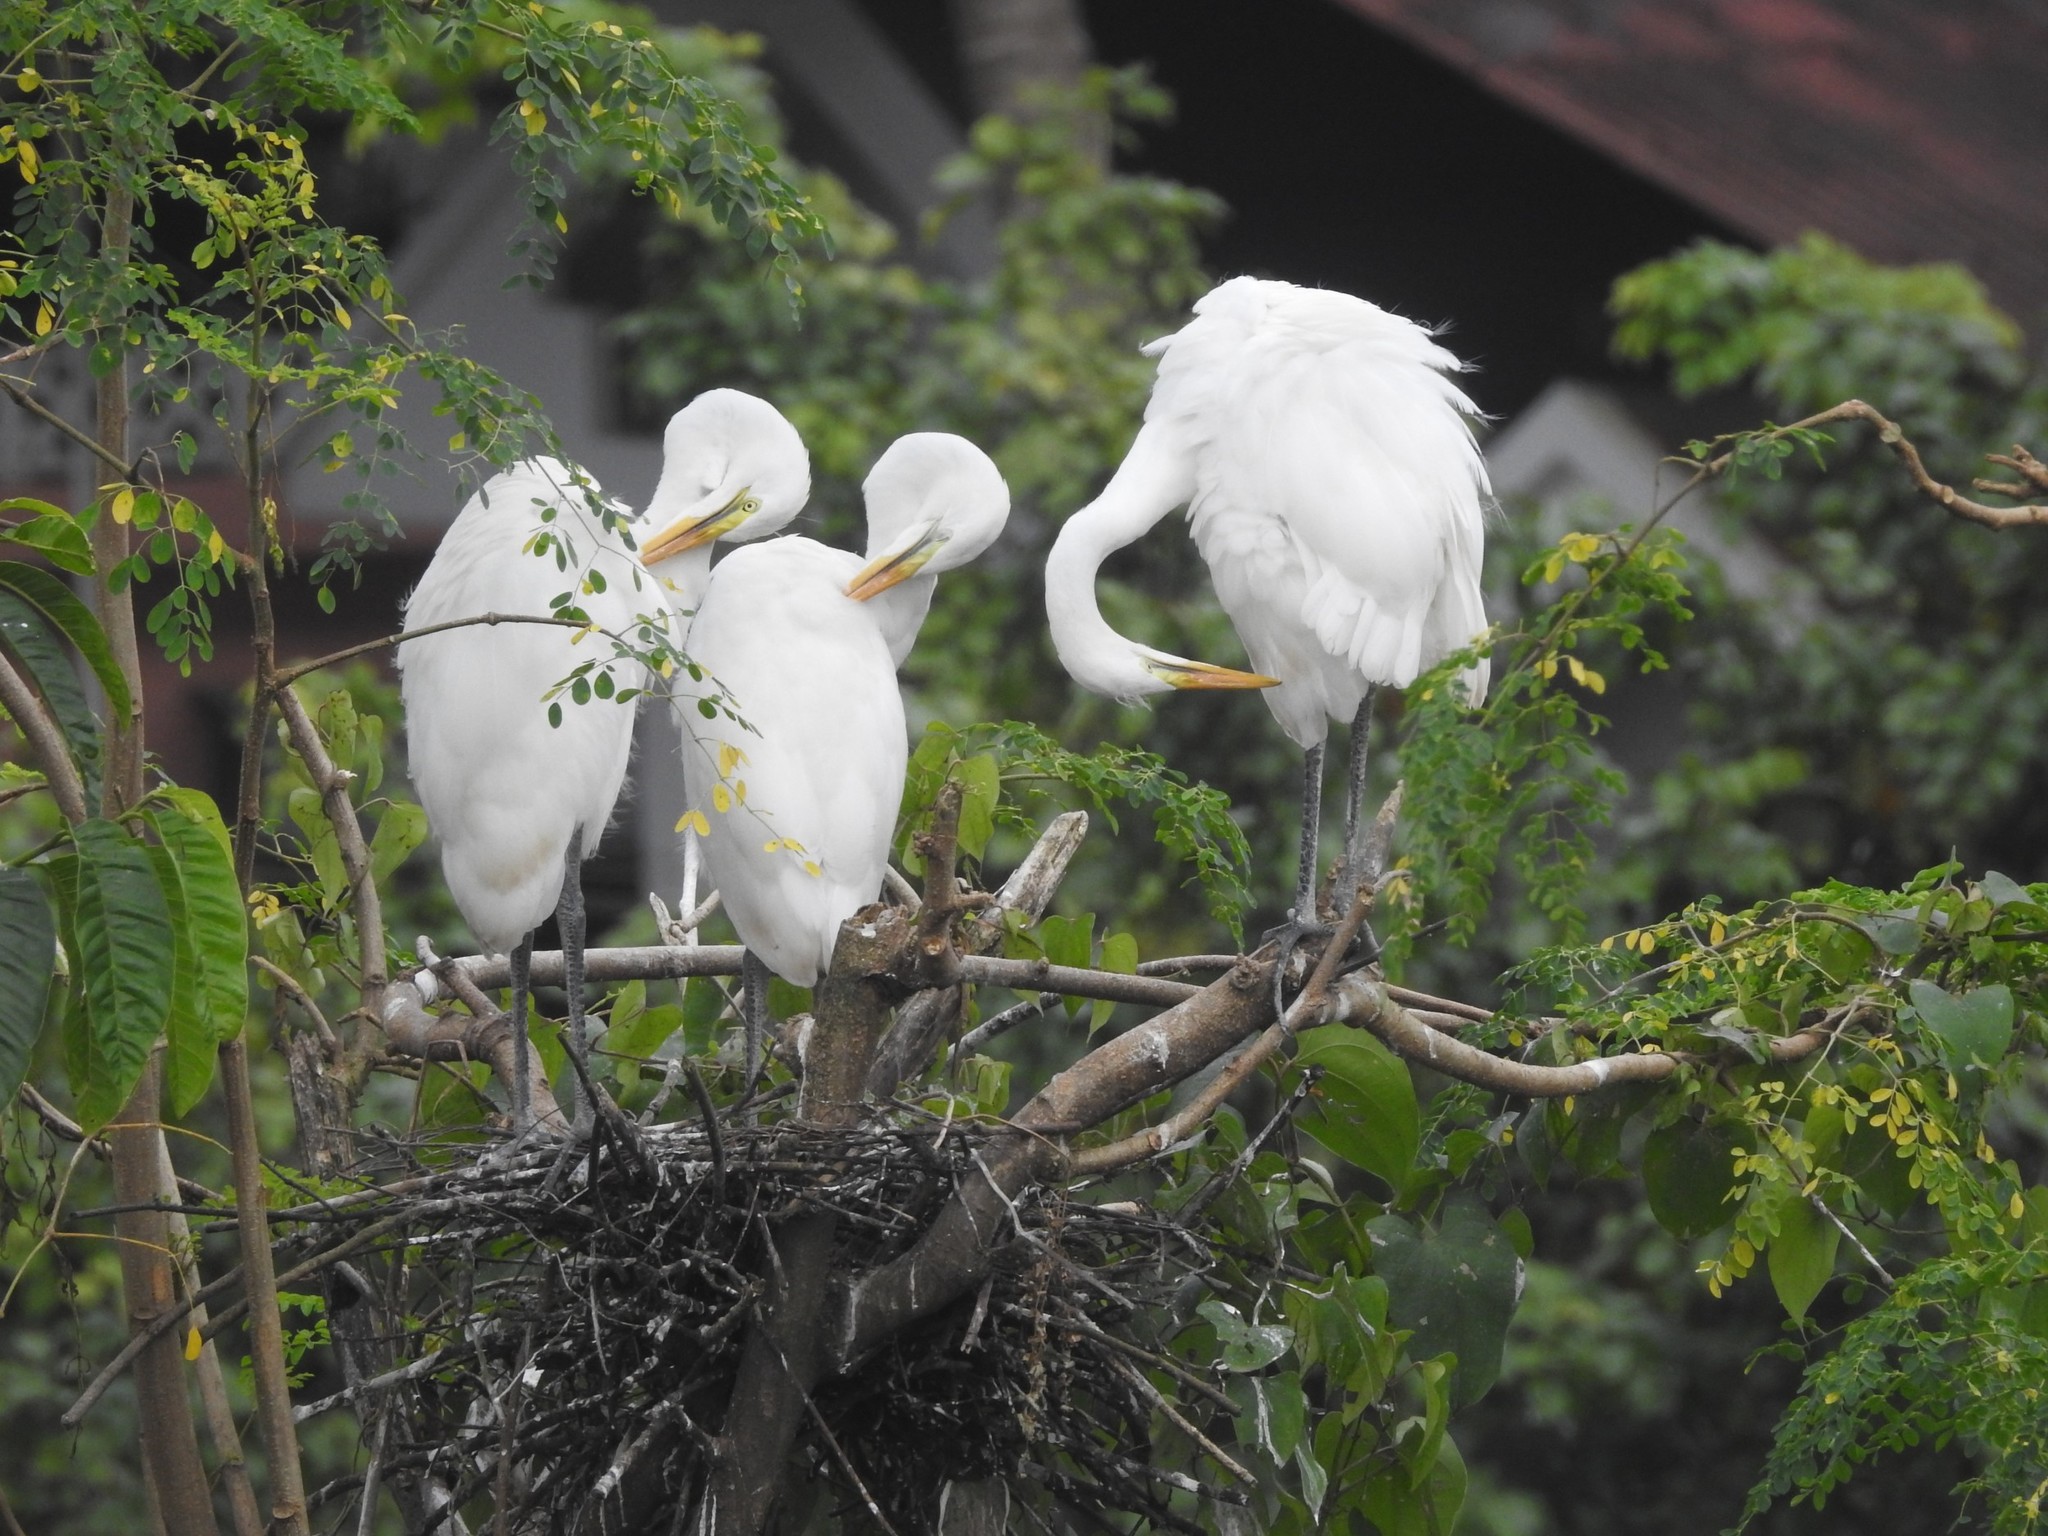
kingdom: Animalia
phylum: Chordata
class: Aves
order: Pelecaniformes
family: Ardeidae
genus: Ardea
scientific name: Ardea alba
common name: Great egret
